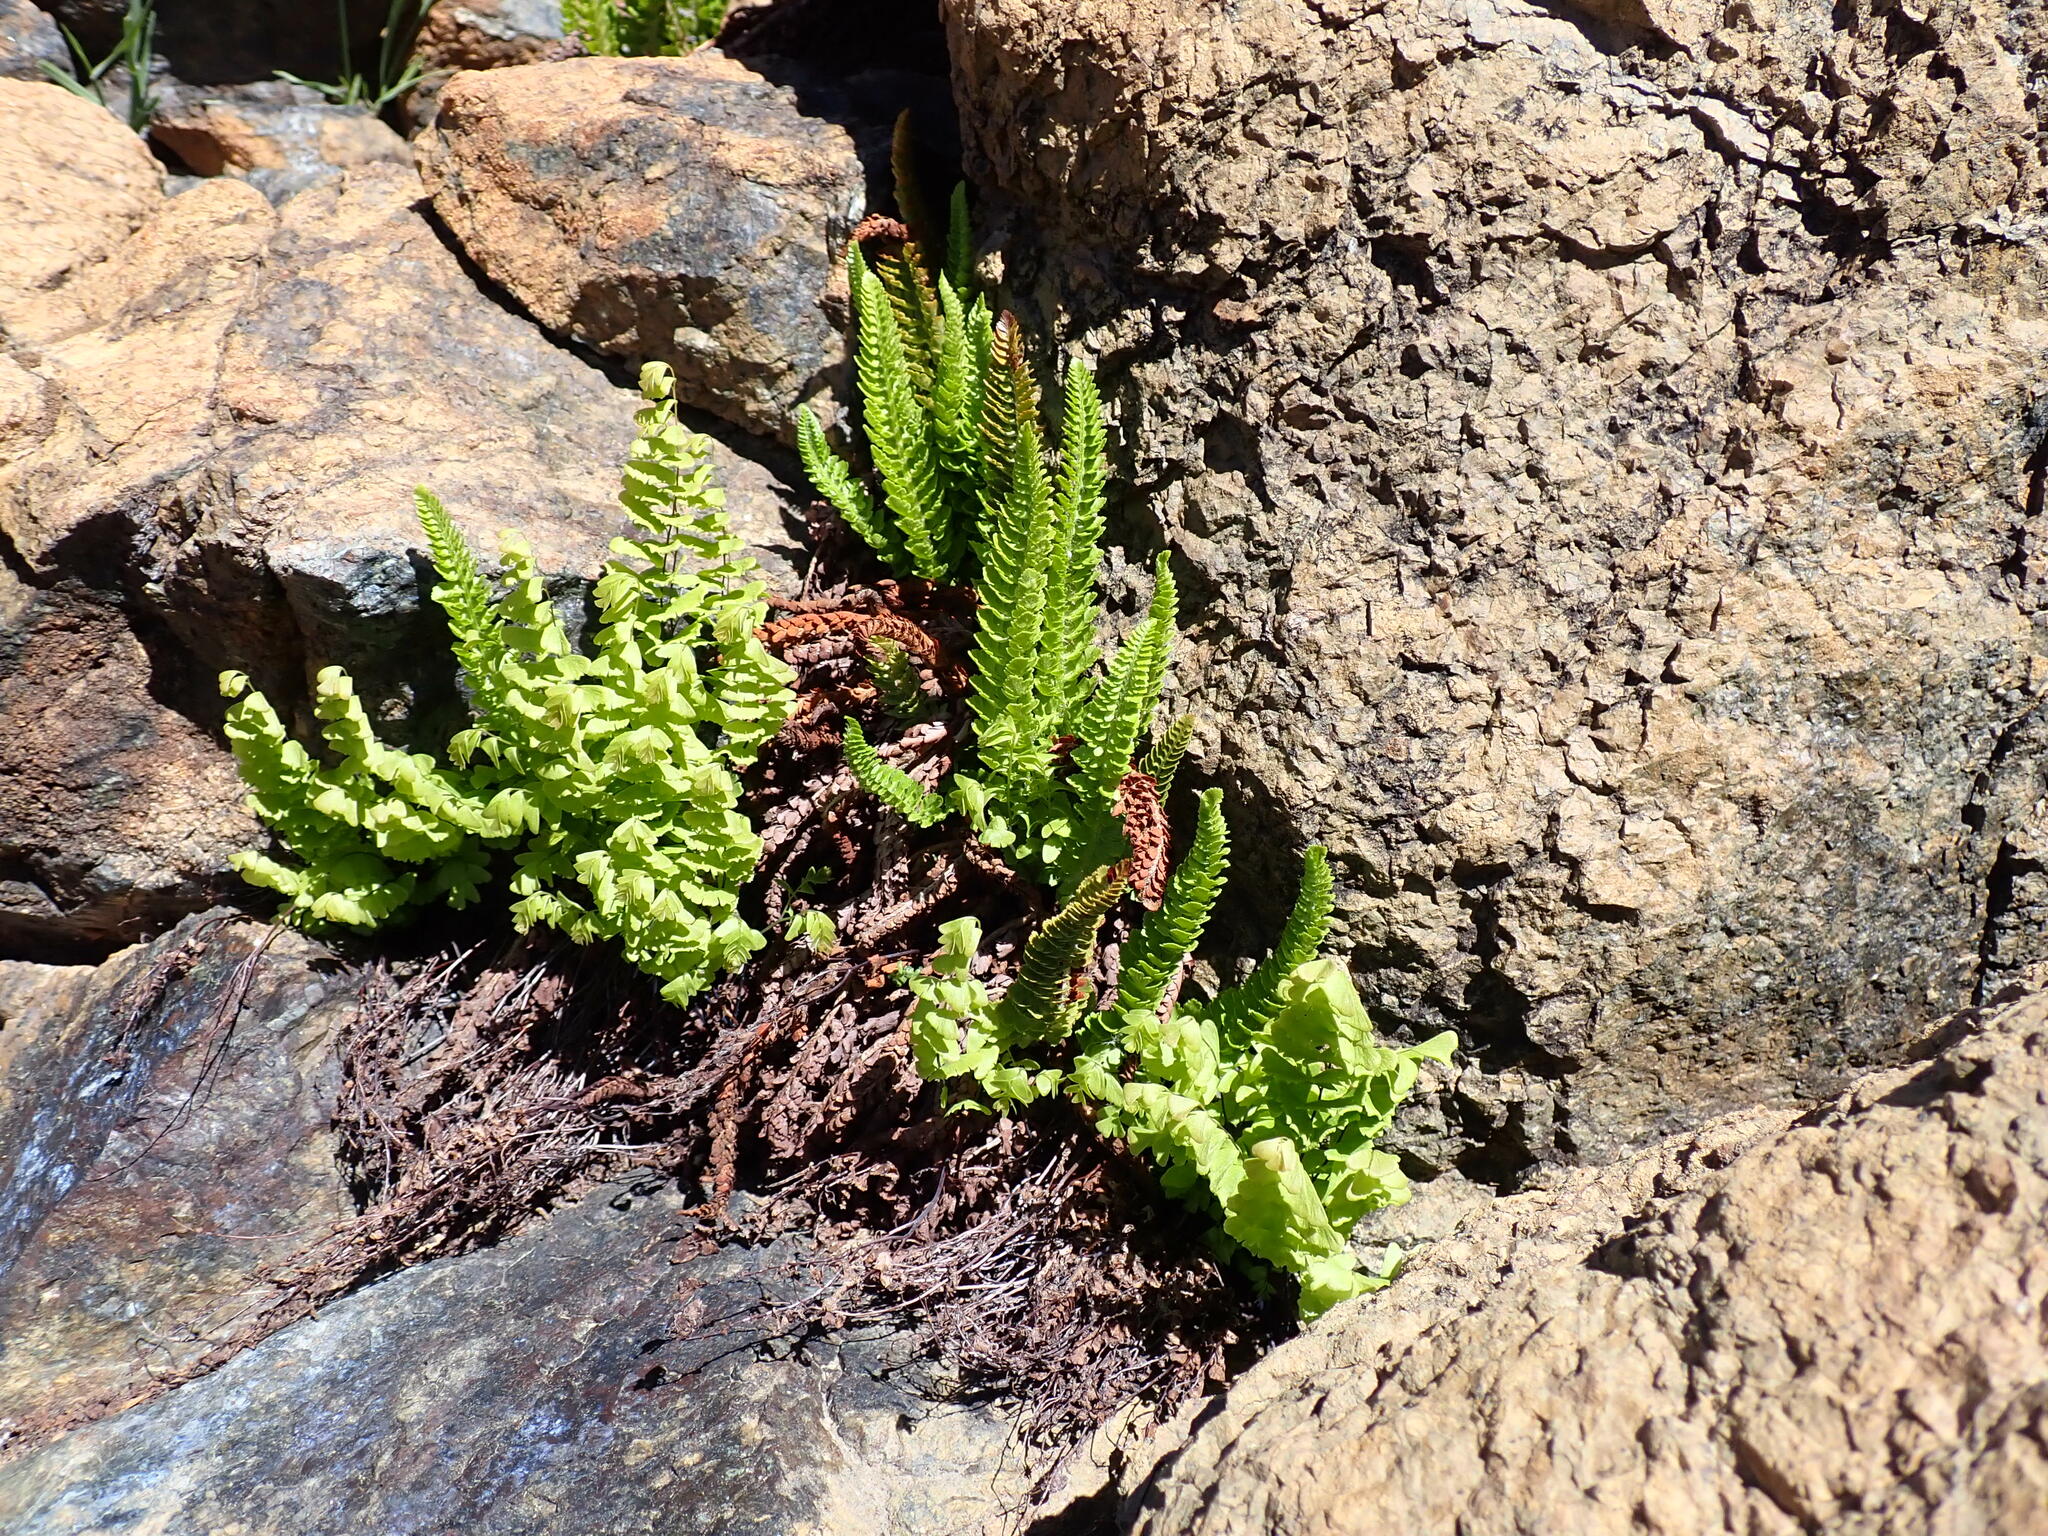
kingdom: Plantae
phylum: Tracheophyta
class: Polypodiopsida
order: Polypodiales
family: Dryopteridaceae
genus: Polystichum
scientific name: Polystichum lemmonii
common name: Lemmon's holly fern
